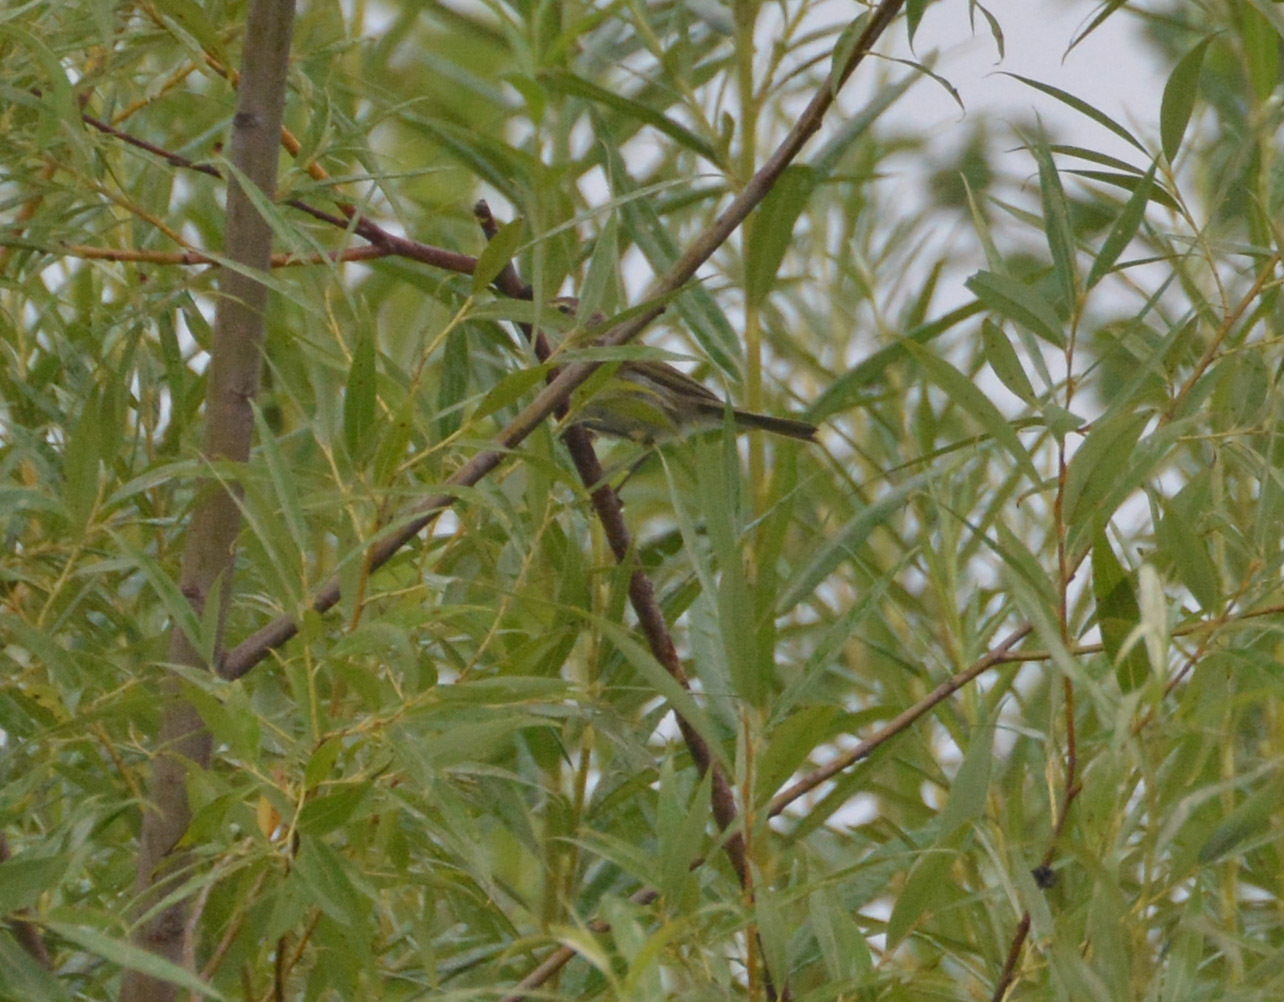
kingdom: Animalia
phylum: Chordata
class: Aves
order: Passeriformes
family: Phylloscopidae
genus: Phylloscopus
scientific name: Phylloscopus collybita
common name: Common chiffchaff
